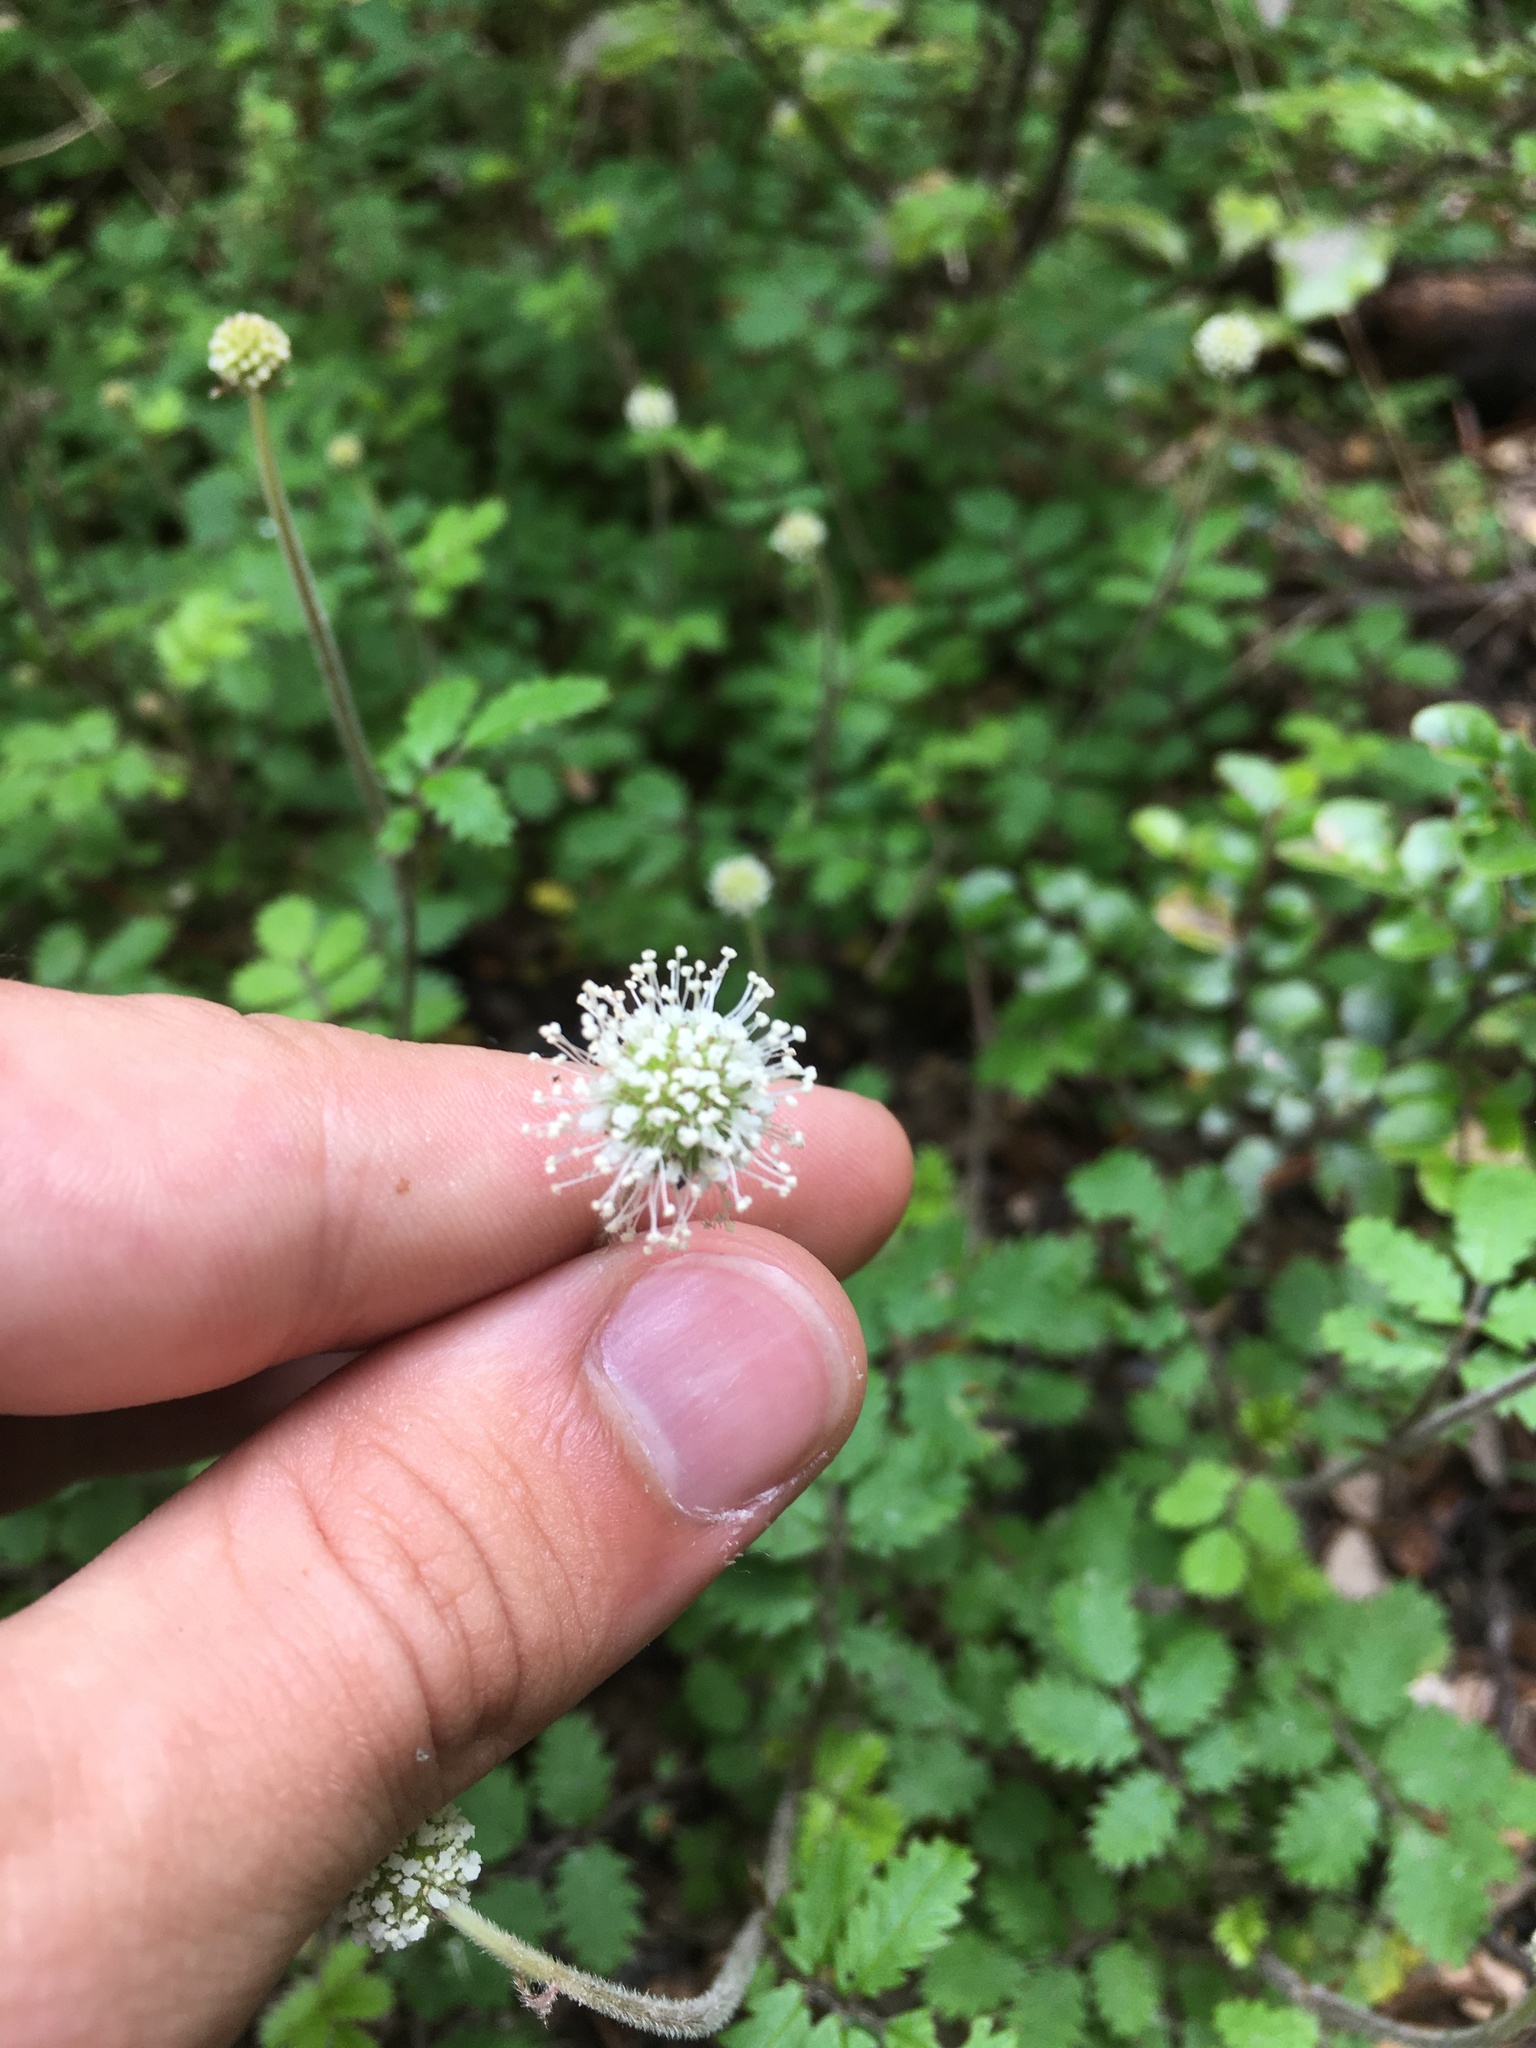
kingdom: Plantae
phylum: Tracheophyta
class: Magnoliopsida
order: Rosales
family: Rosaceae
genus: Acaena
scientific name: Acaena juvenca
